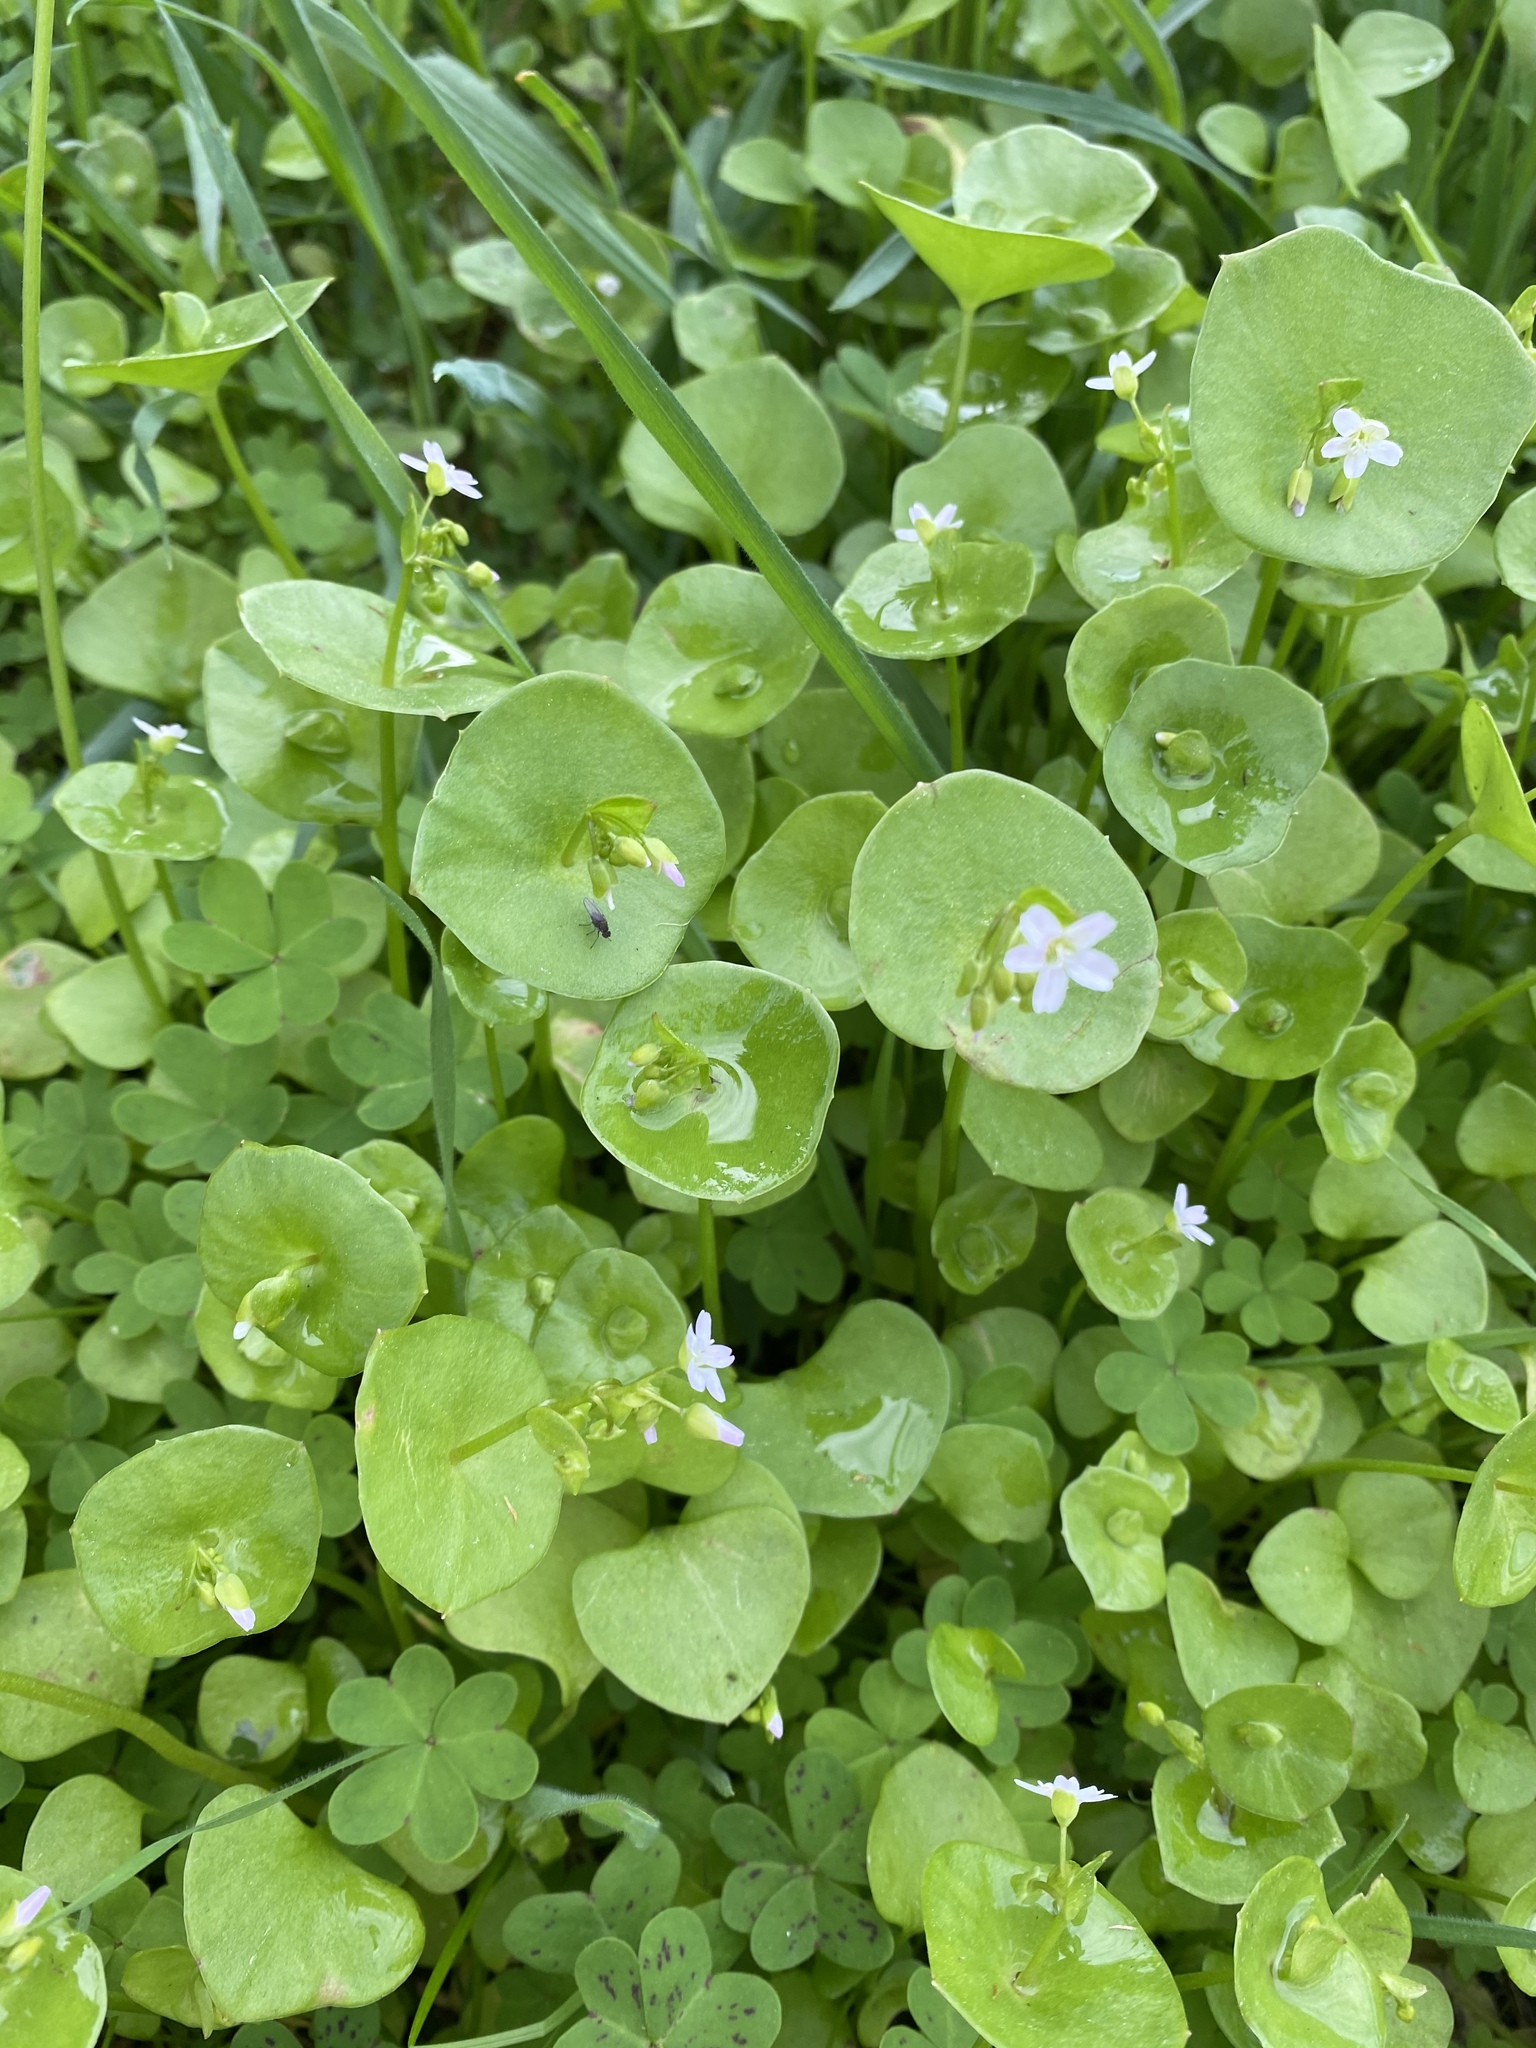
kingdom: Plantae
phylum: Tracheophyta
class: Magnoliopsida
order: Caryophyllales
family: Montiaceae
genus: Claytonia
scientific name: Claytonia perfoliata
